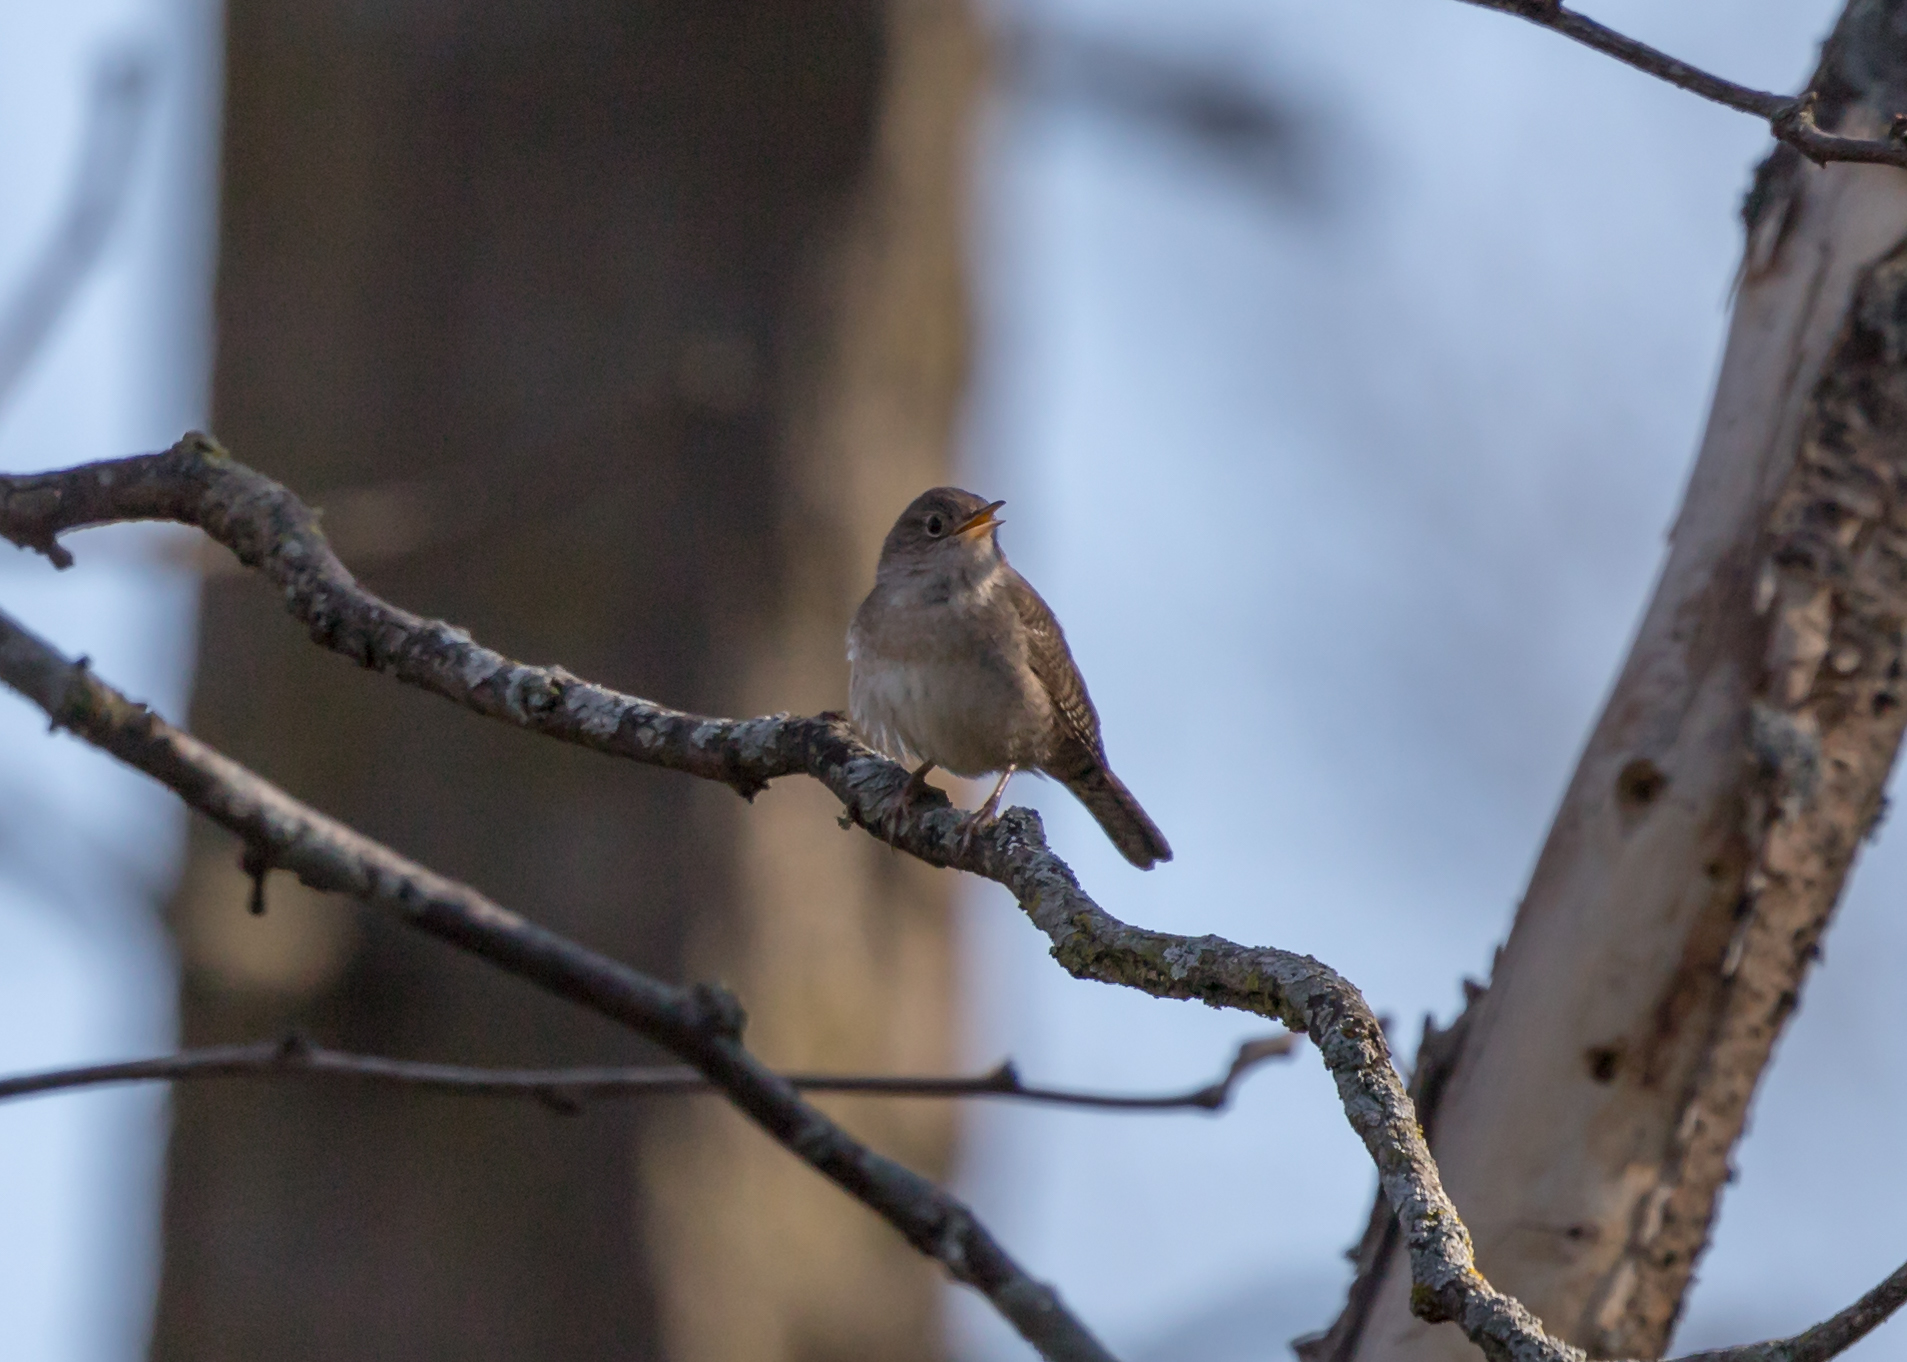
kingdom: Animalia
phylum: Chordata
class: Aves
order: Passeriformes
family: Troglodytidae
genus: Troglodytes
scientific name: Troglodytes aedon
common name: House wren
